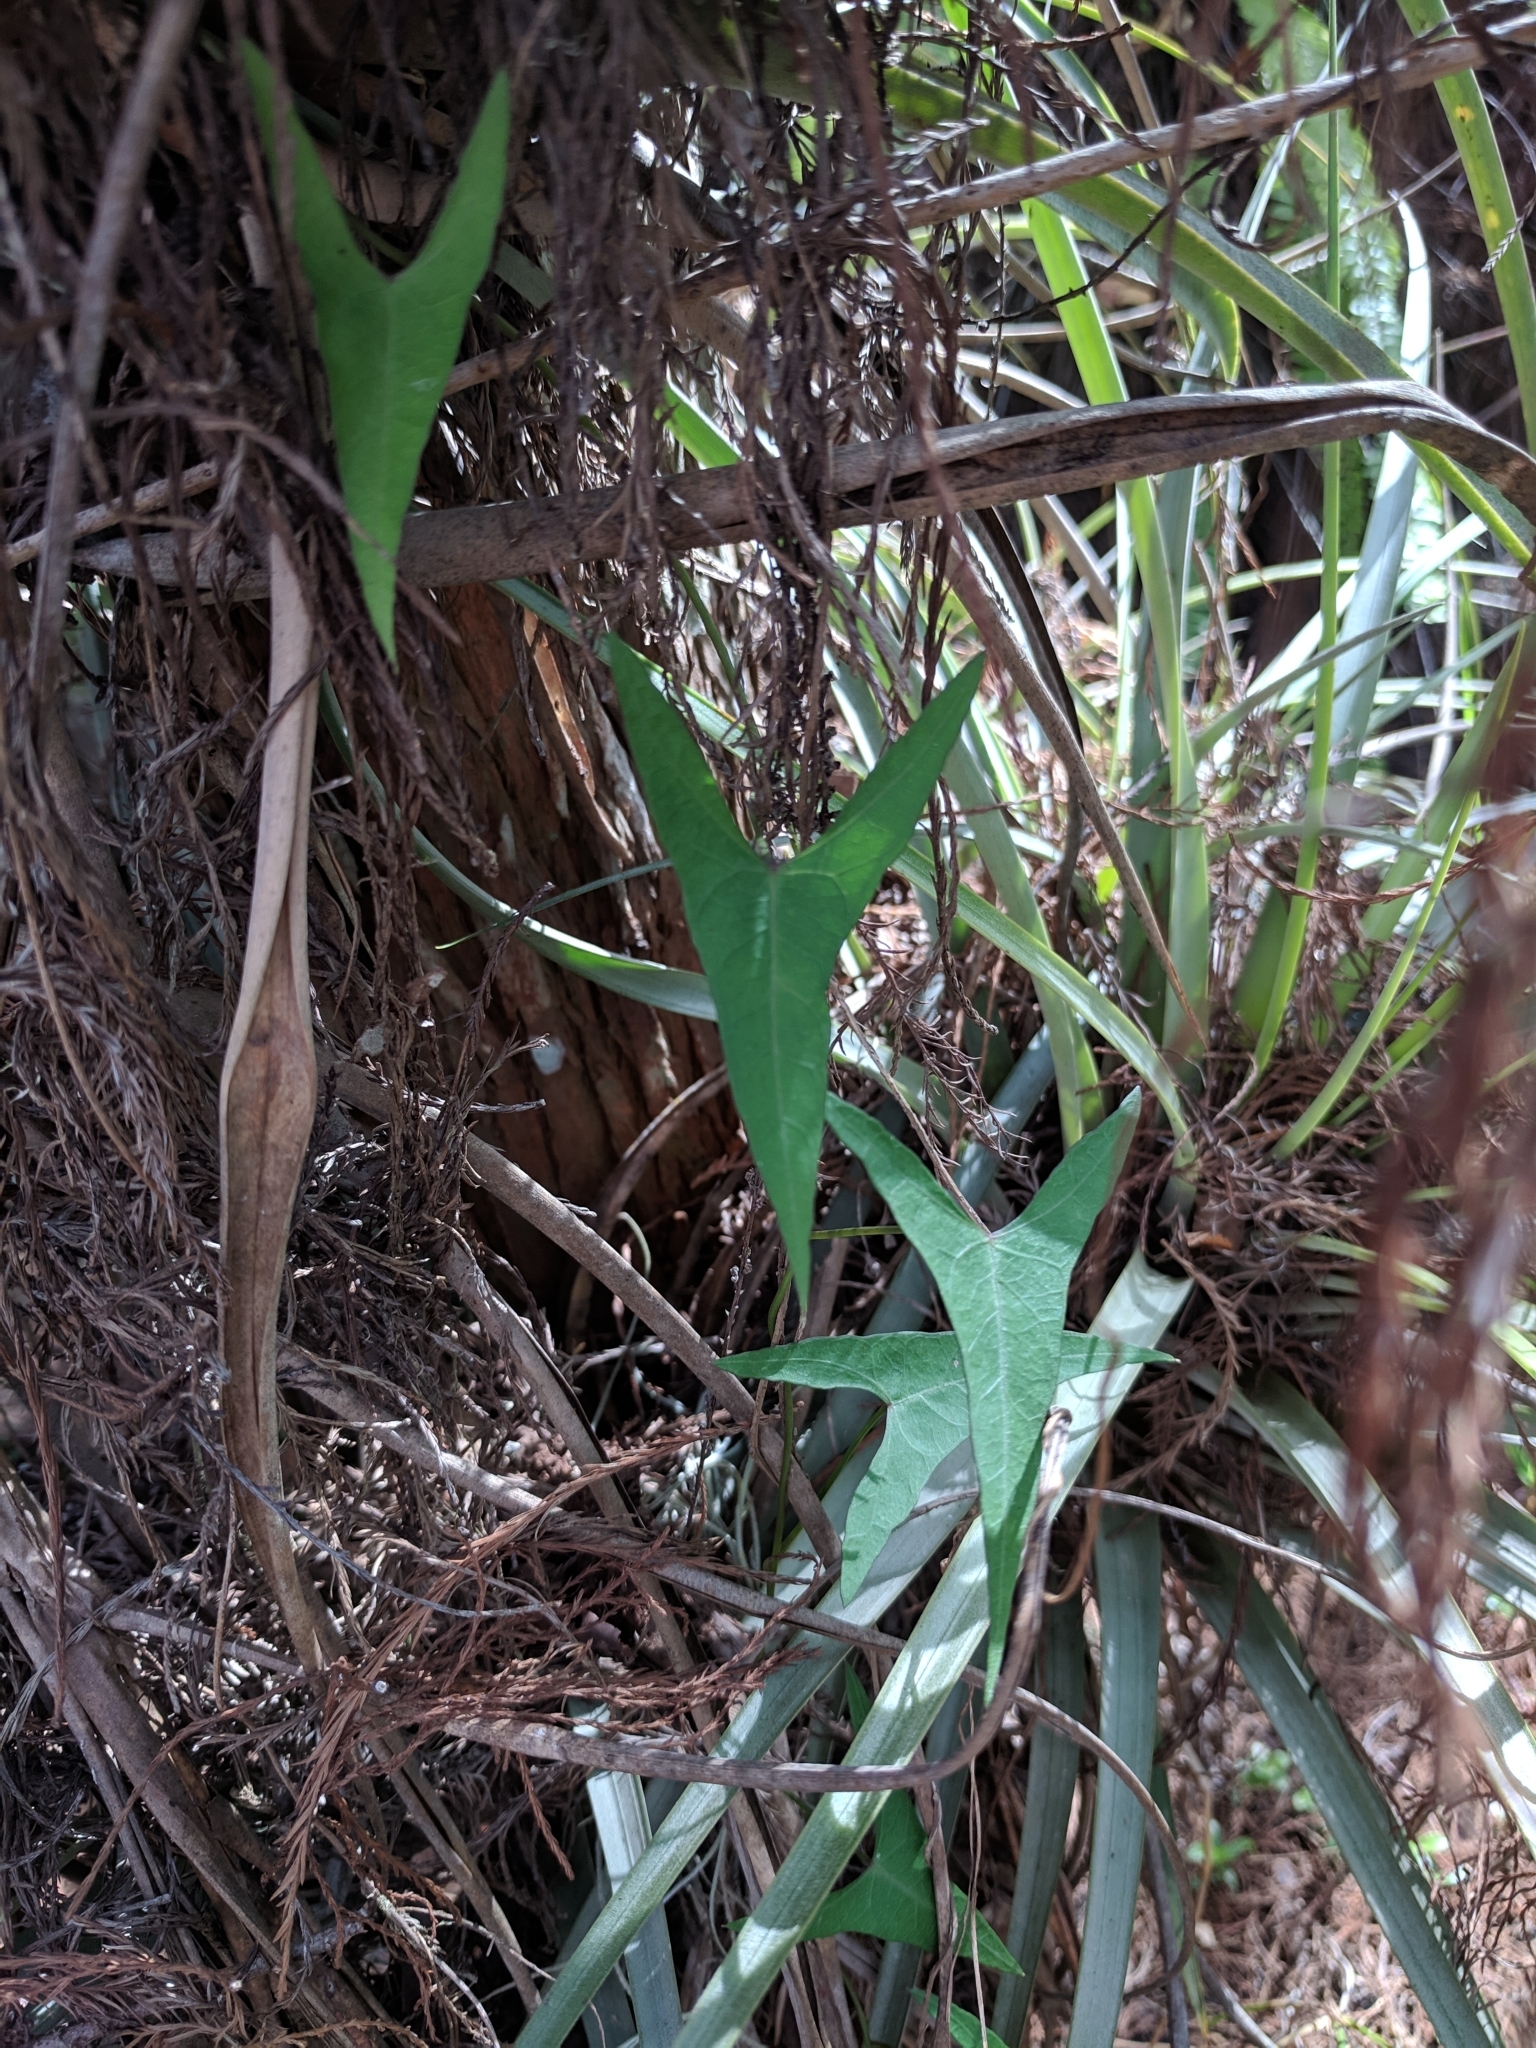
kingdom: Plantae
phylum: Tracheophyta
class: Magnoliopsida
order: Solanales
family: Convolvulaceae
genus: Ipomoea
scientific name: Ipomoea sagittata
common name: Saltmarsh morning glory
